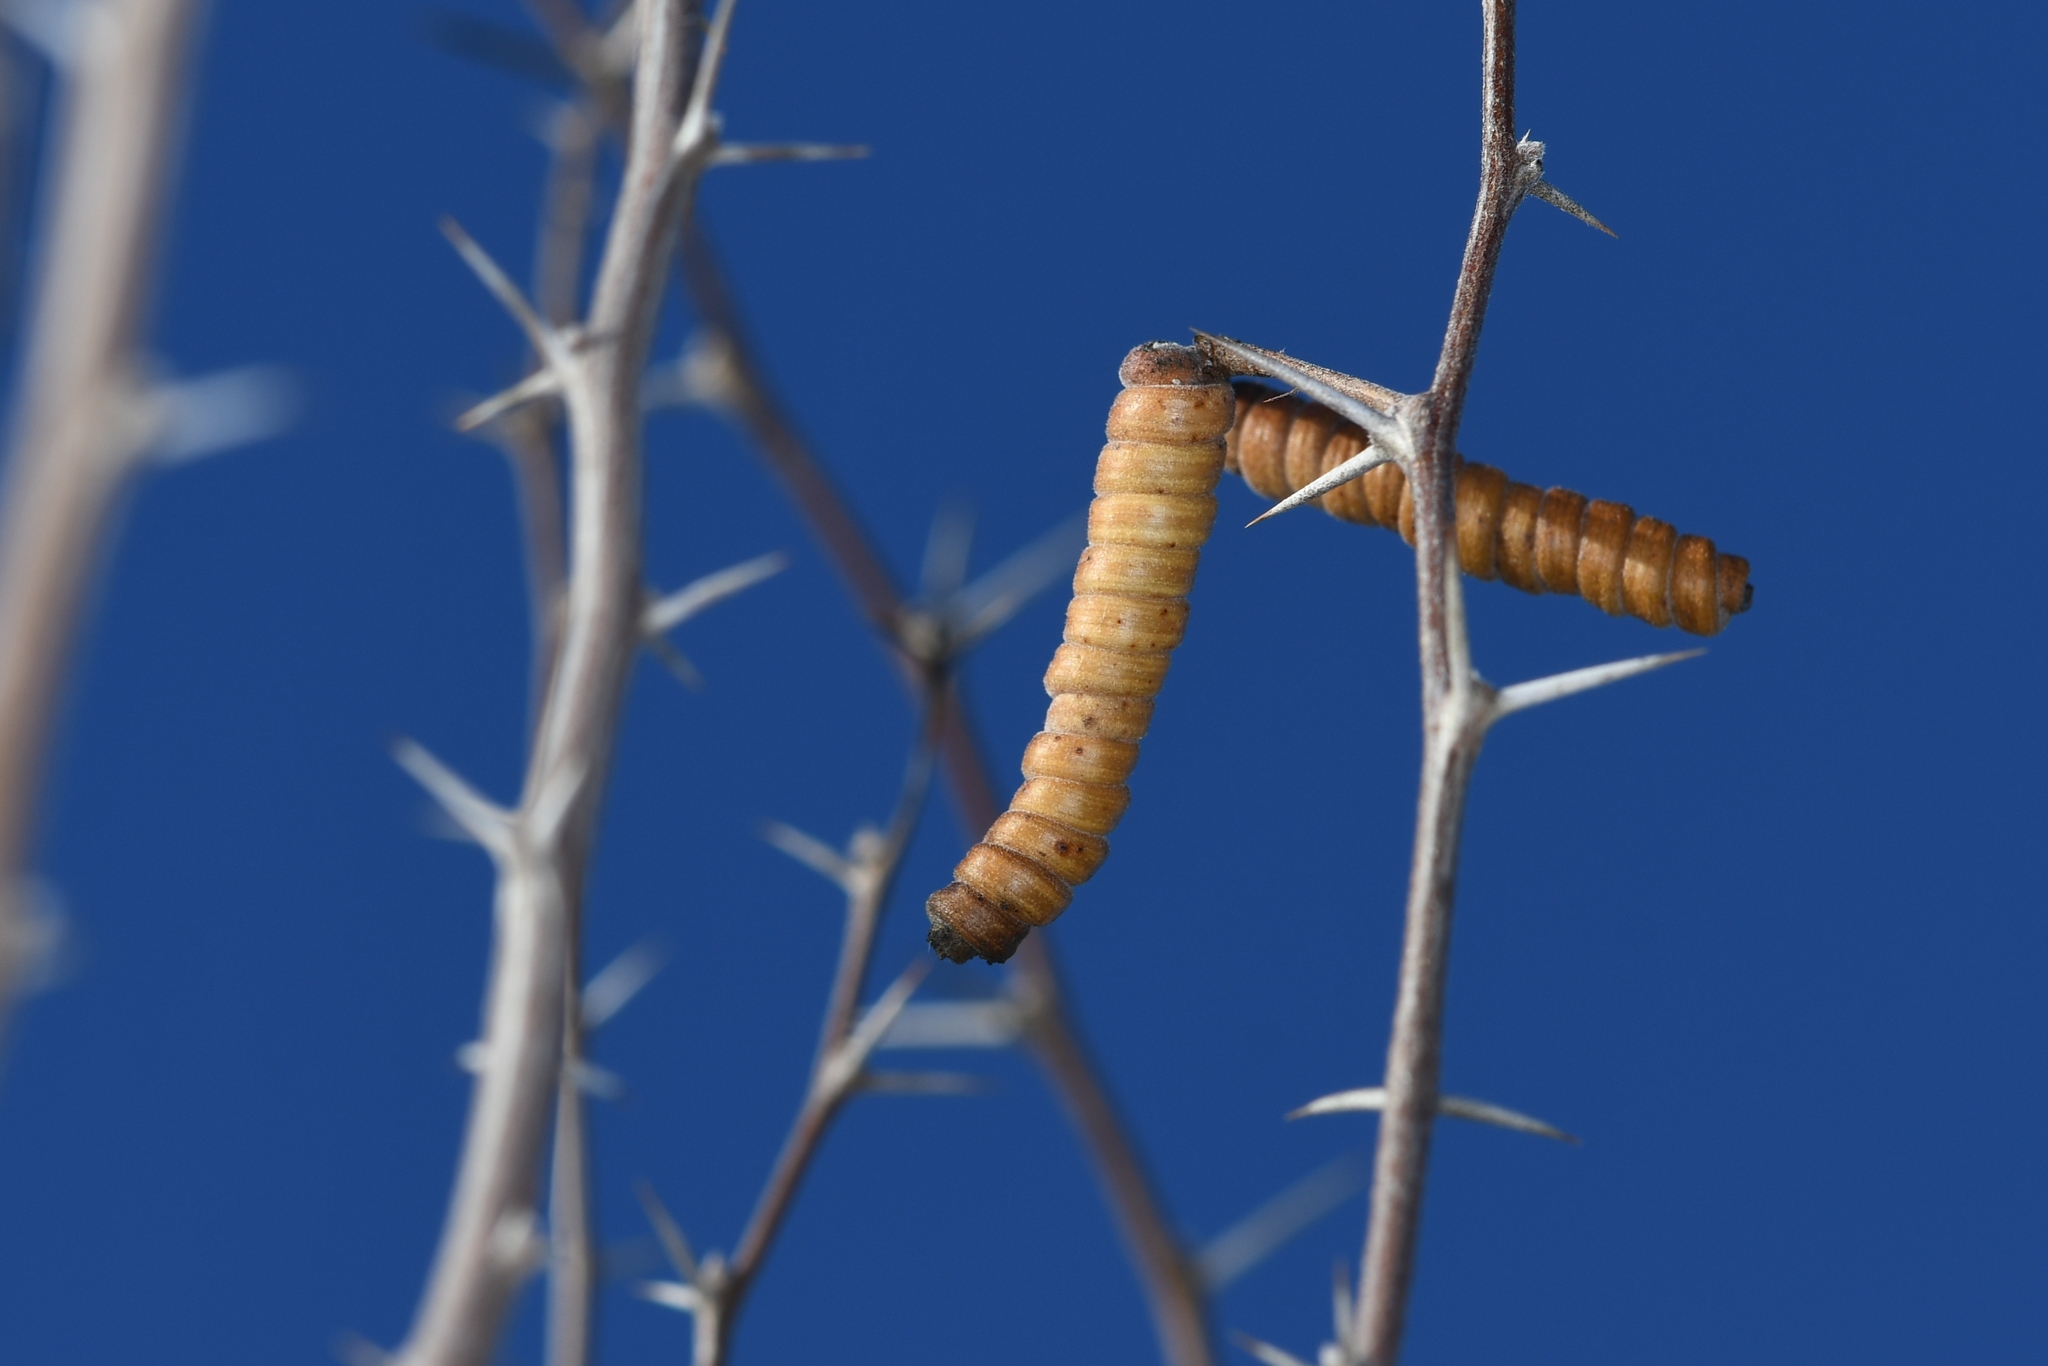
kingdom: Plantae
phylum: Tracheophyta
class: Magnoliopsida
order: Fabales
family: Fabaceae
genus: Prosopis
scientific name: Prosopis pubescens
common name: Screw-bean
